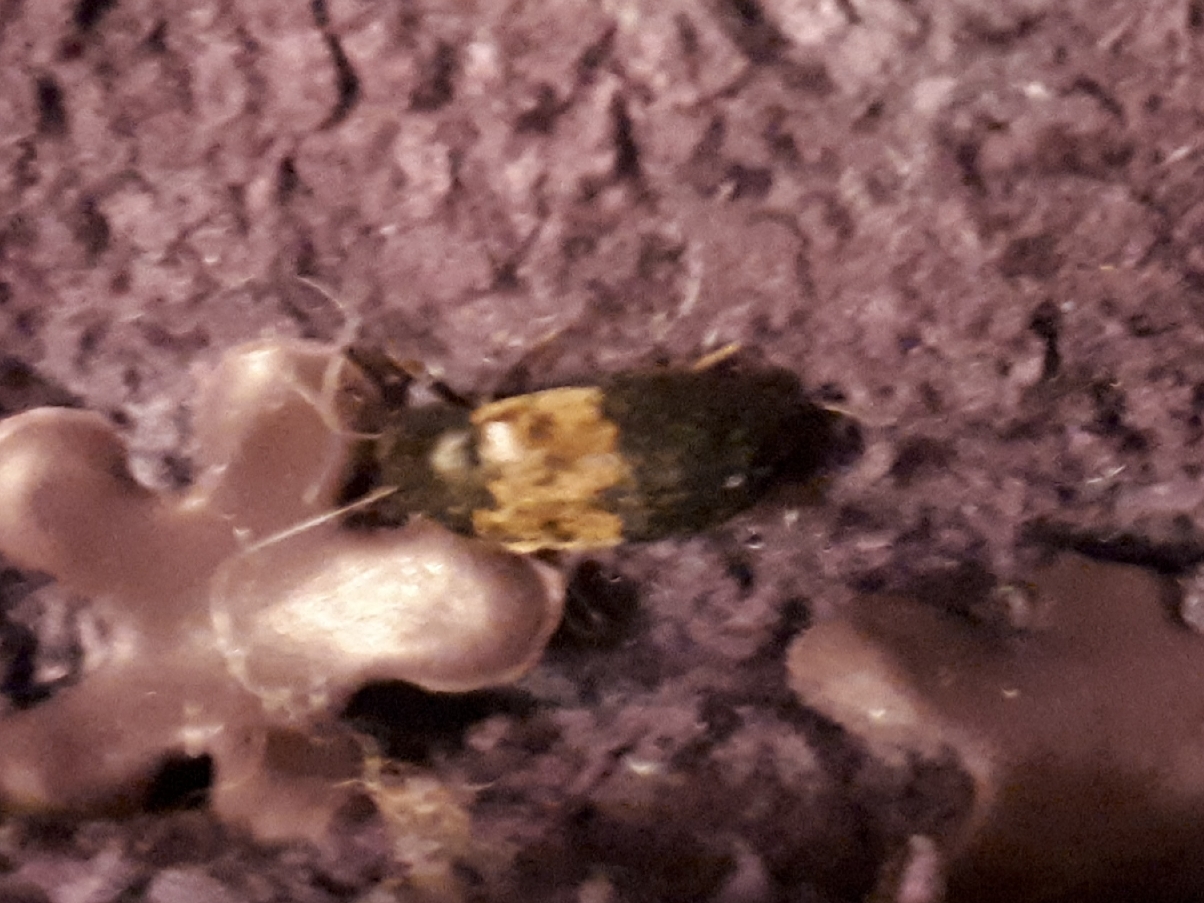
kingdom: Animalia
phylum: Arthropoda
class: Insecta
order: Coleoptera
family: Dermestidae
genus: Dermestes
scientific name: Dermestes lardarius
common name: Larder beetle
